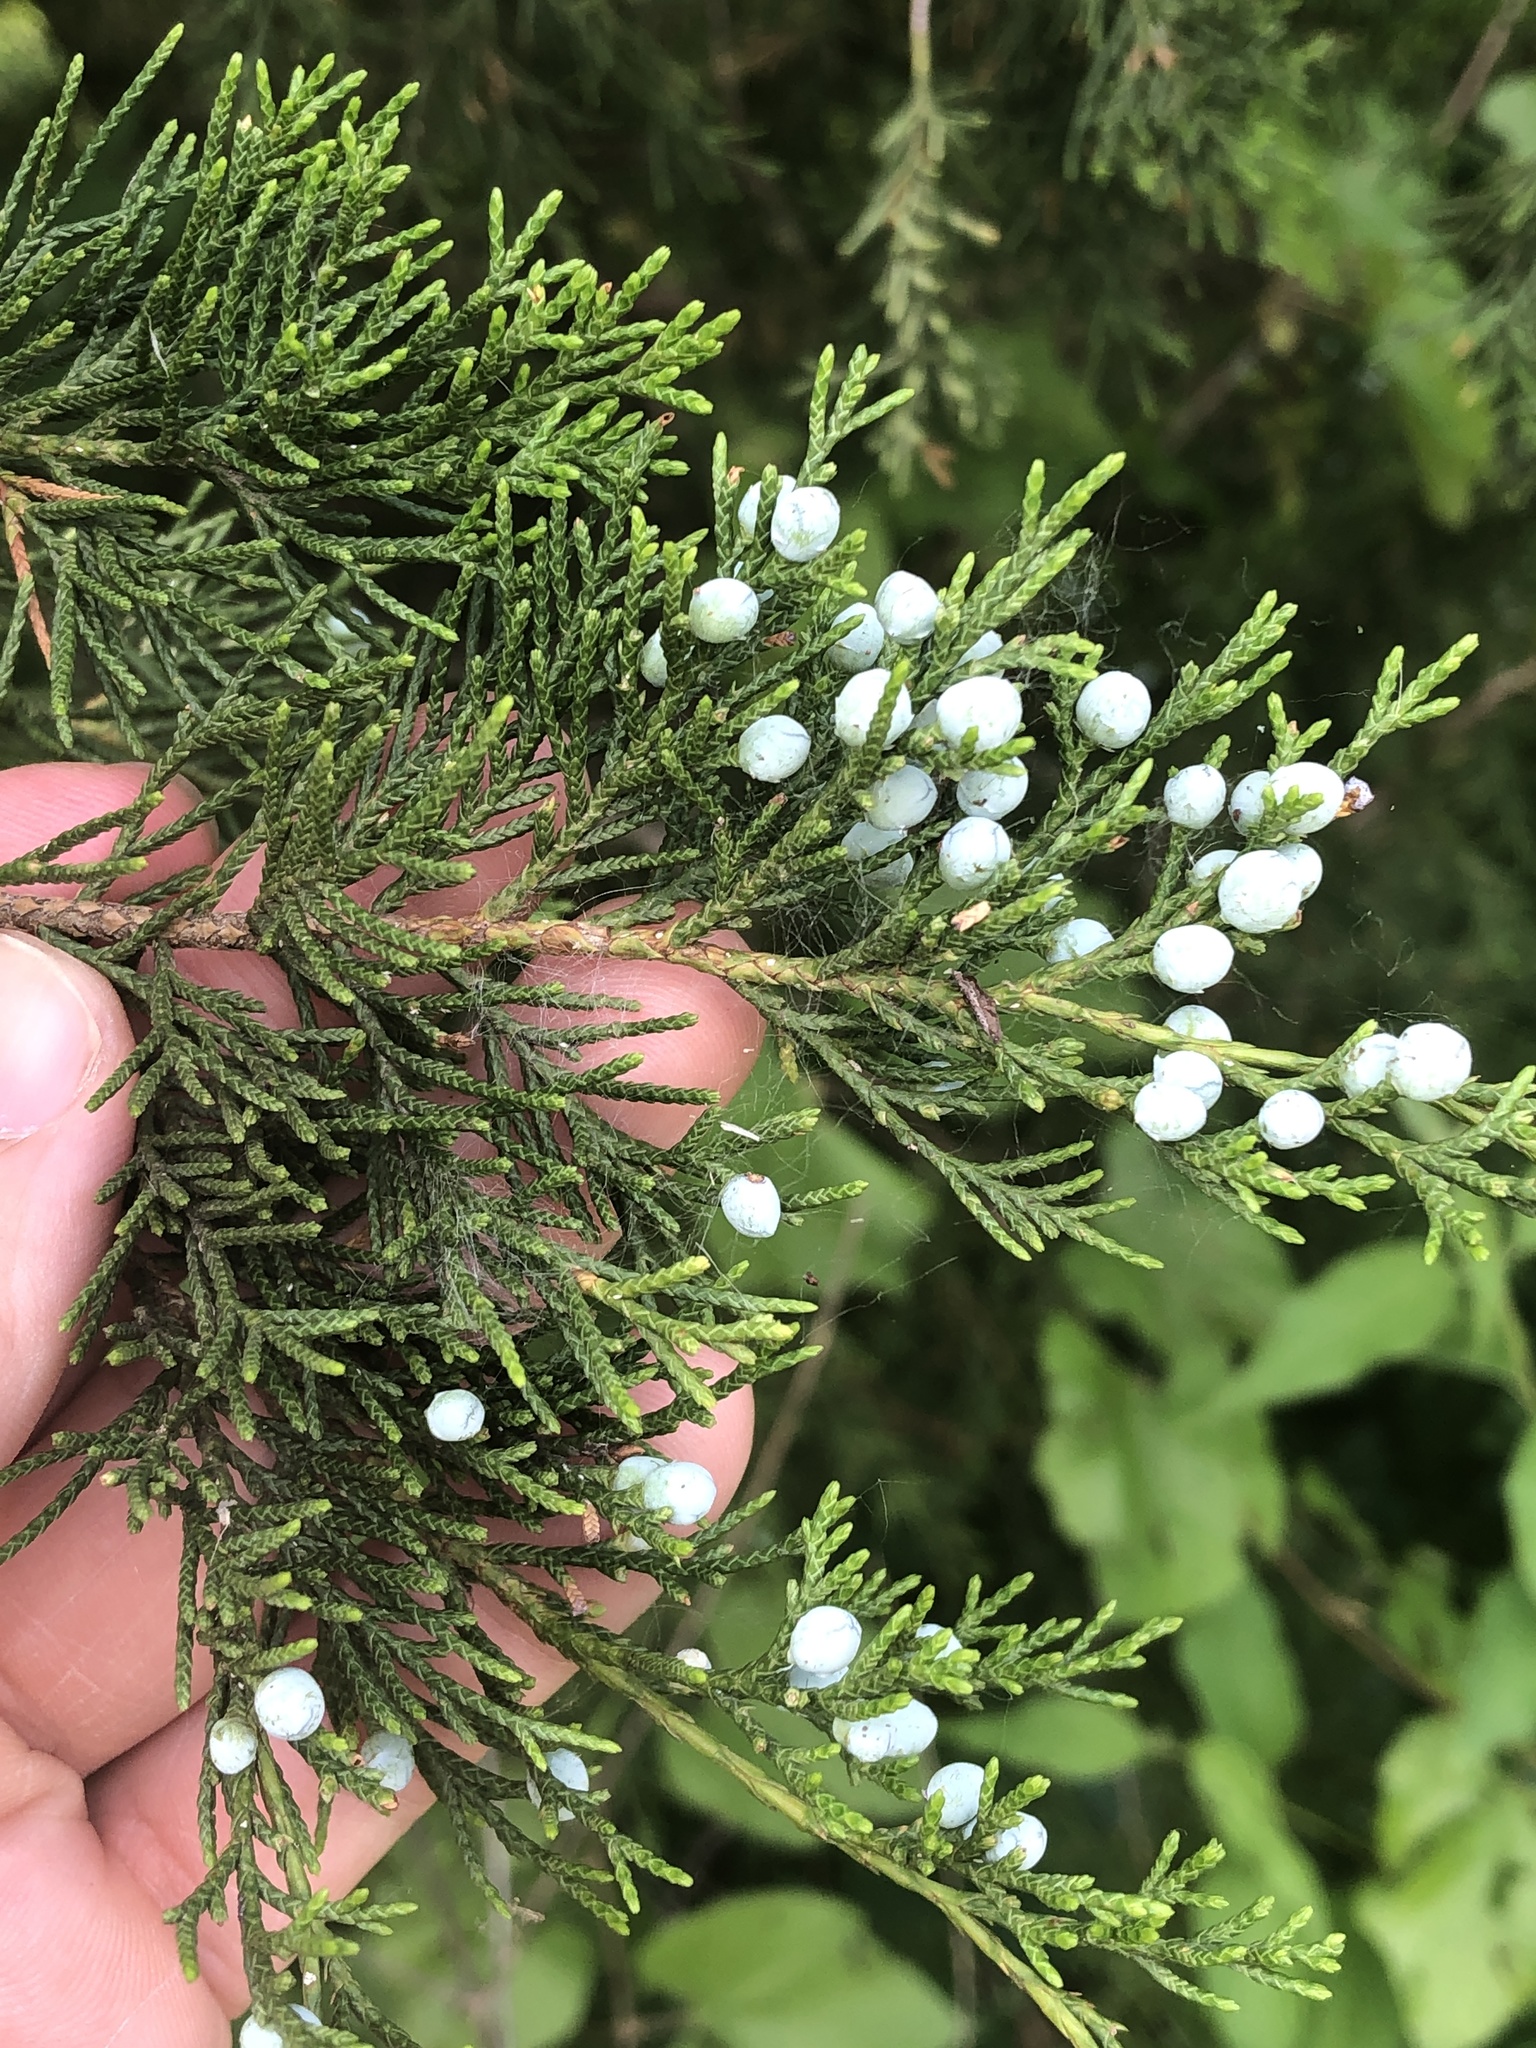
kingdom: Plantae
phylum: Tracheophyta
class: Pinopsida
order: Pinales
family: Cupressaceae
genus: Juniperus
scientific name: Juniperus virginiana
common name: Red juniper
